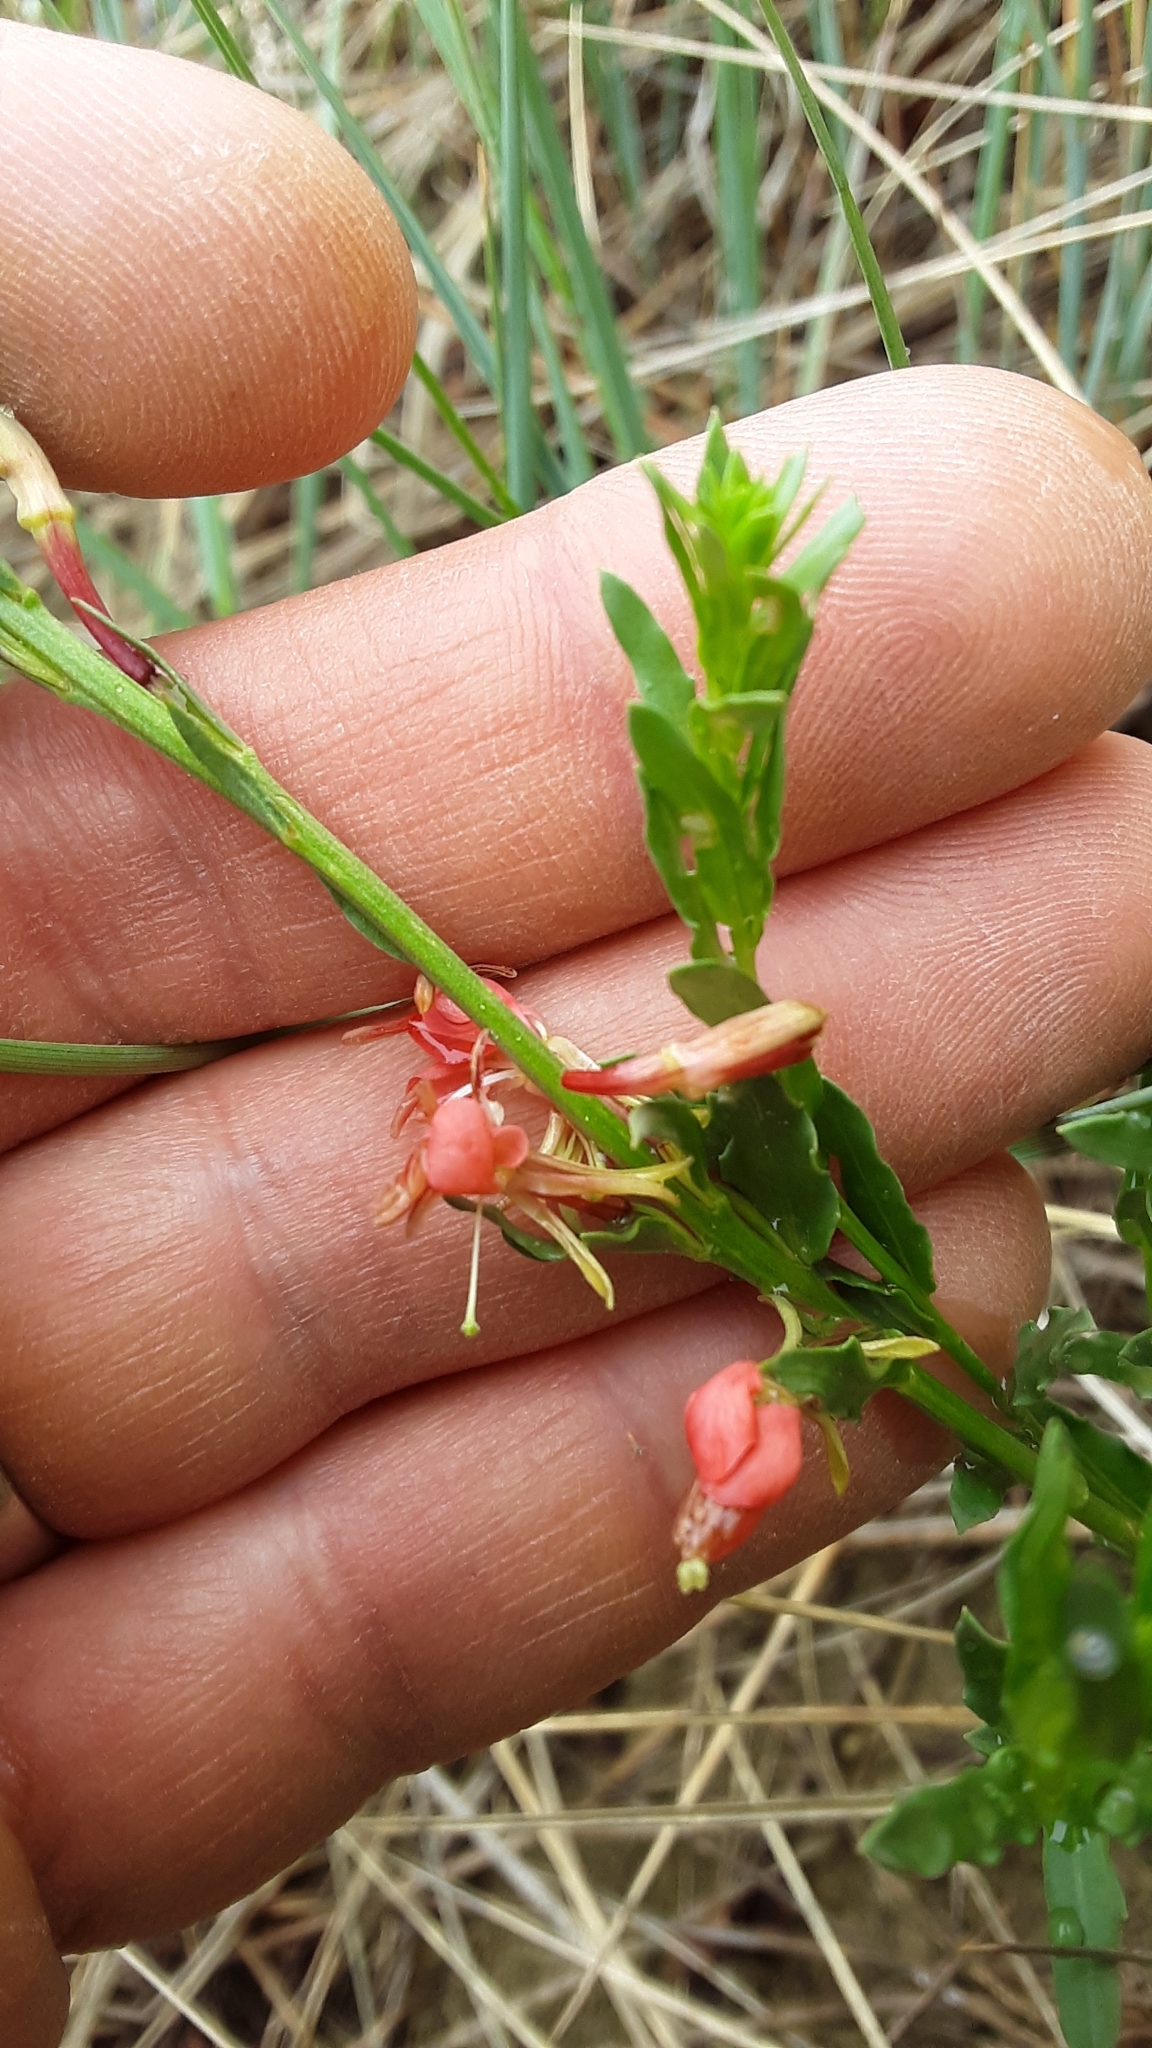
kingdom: Plantae
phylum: Tracheophyta
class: Magnoliopsida
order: Myrtales
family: Onagraceae
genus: Oenothera
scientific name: Oenothera suffrutescens
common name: Scarlet beeblossom
